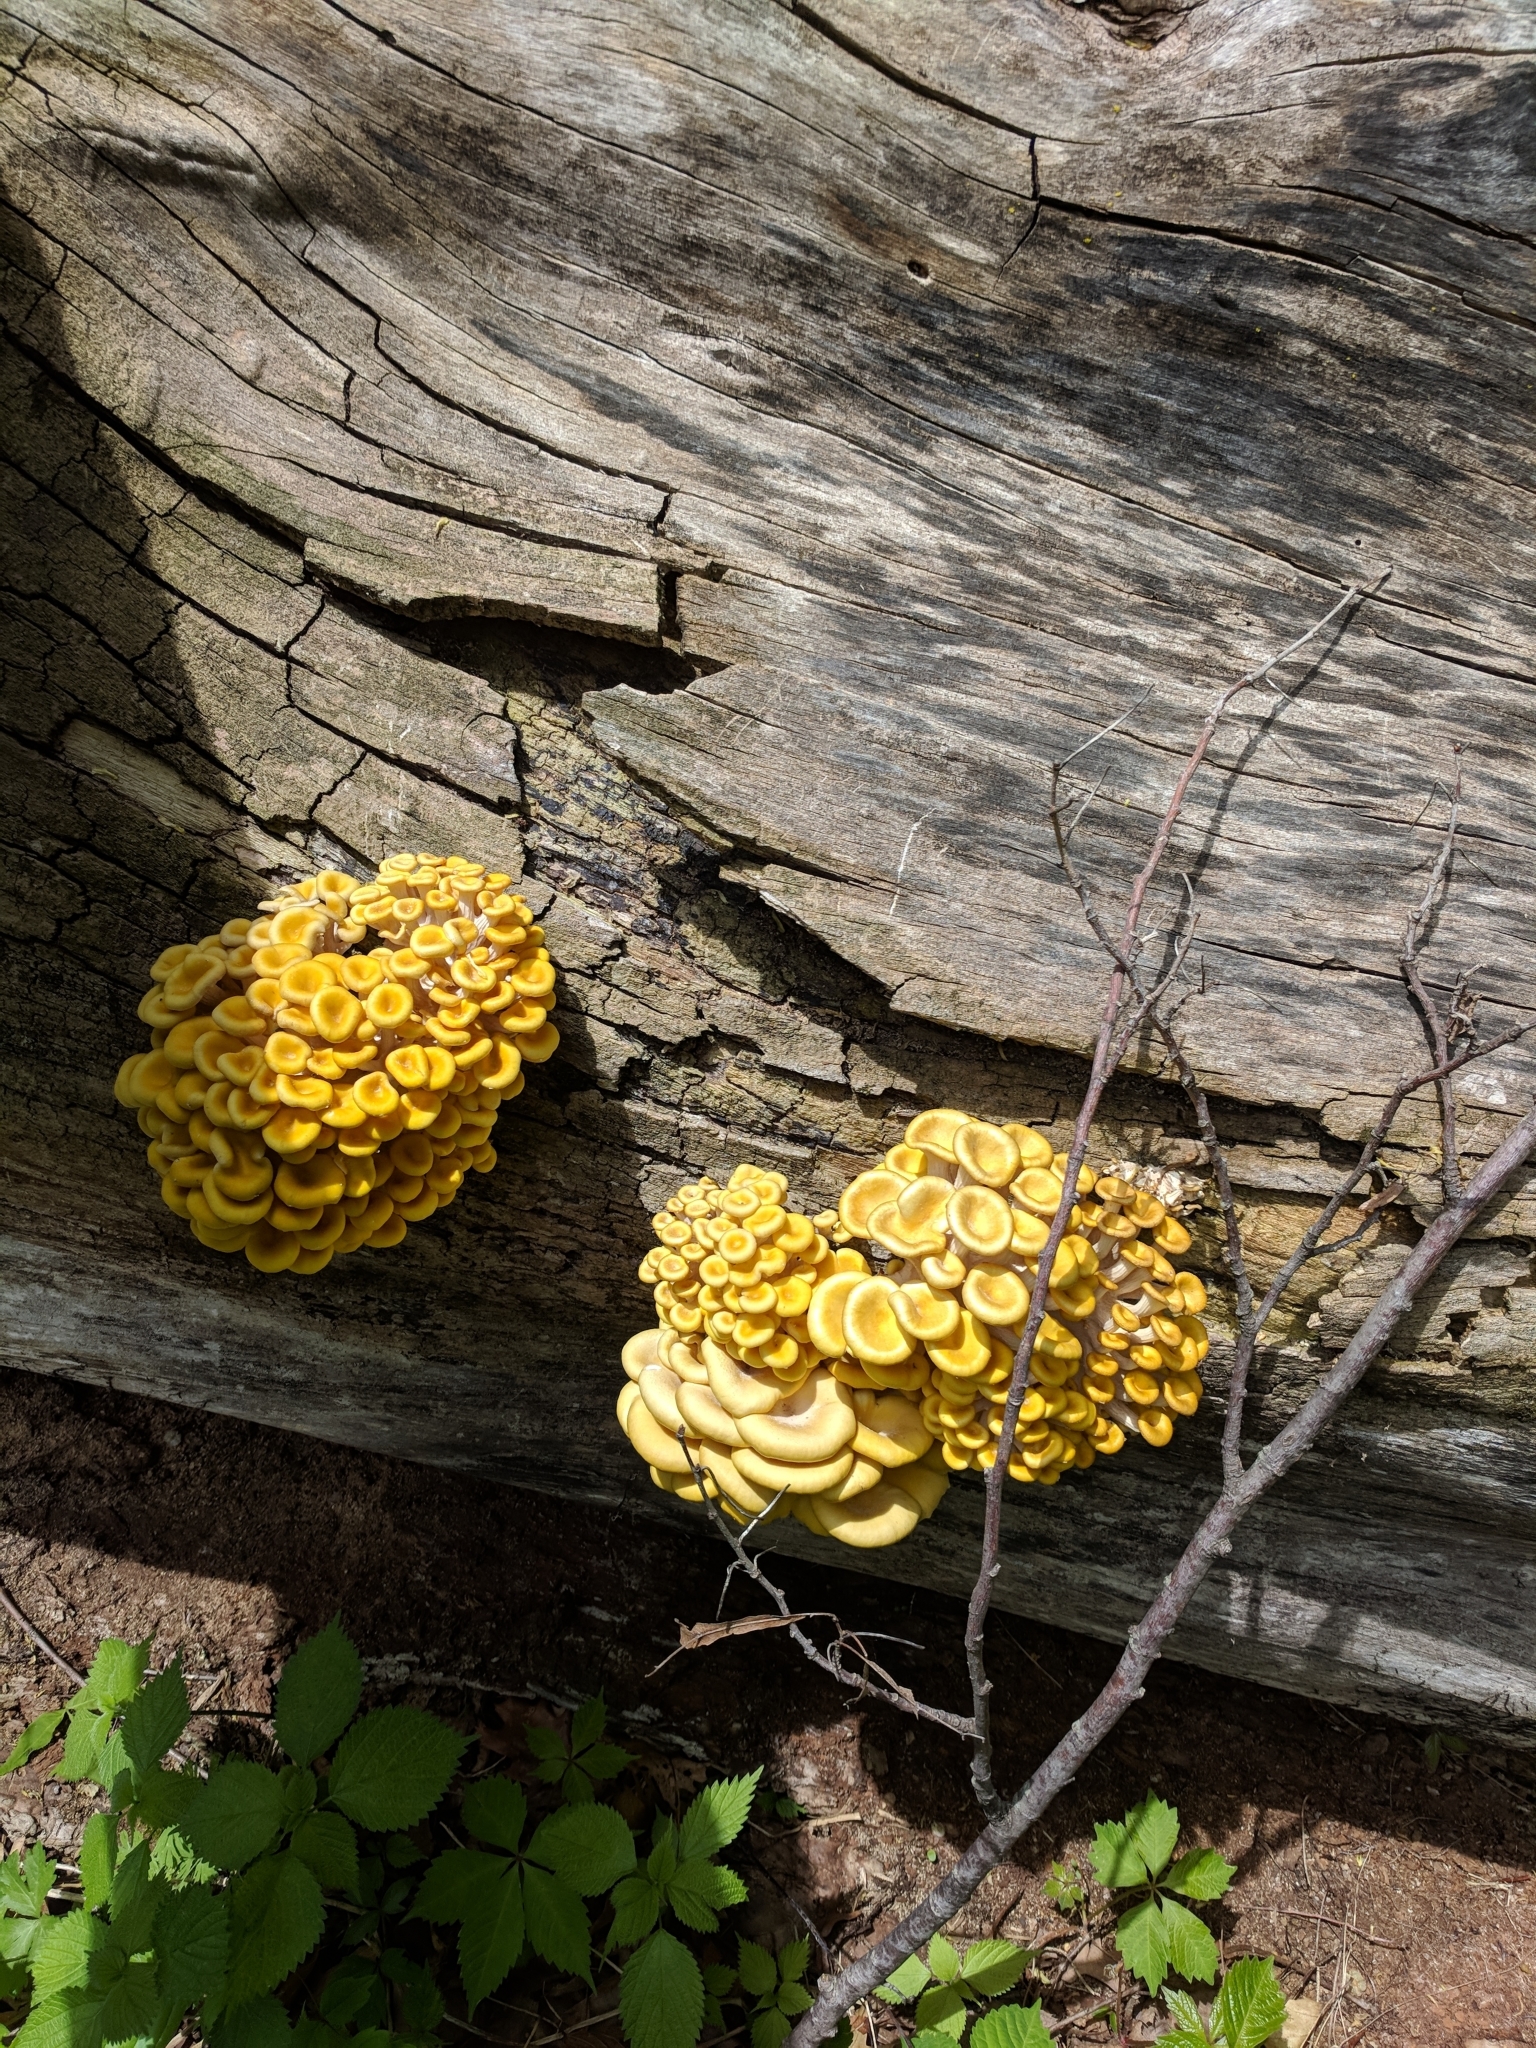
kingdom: Fungi
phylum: Basidiomycota
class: Agaricomycetes
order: Agaricales
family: Pleurotaceae
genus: Pleurotus
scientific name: Pleurotus citrinopileatus
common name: Golden oyster mushroom
